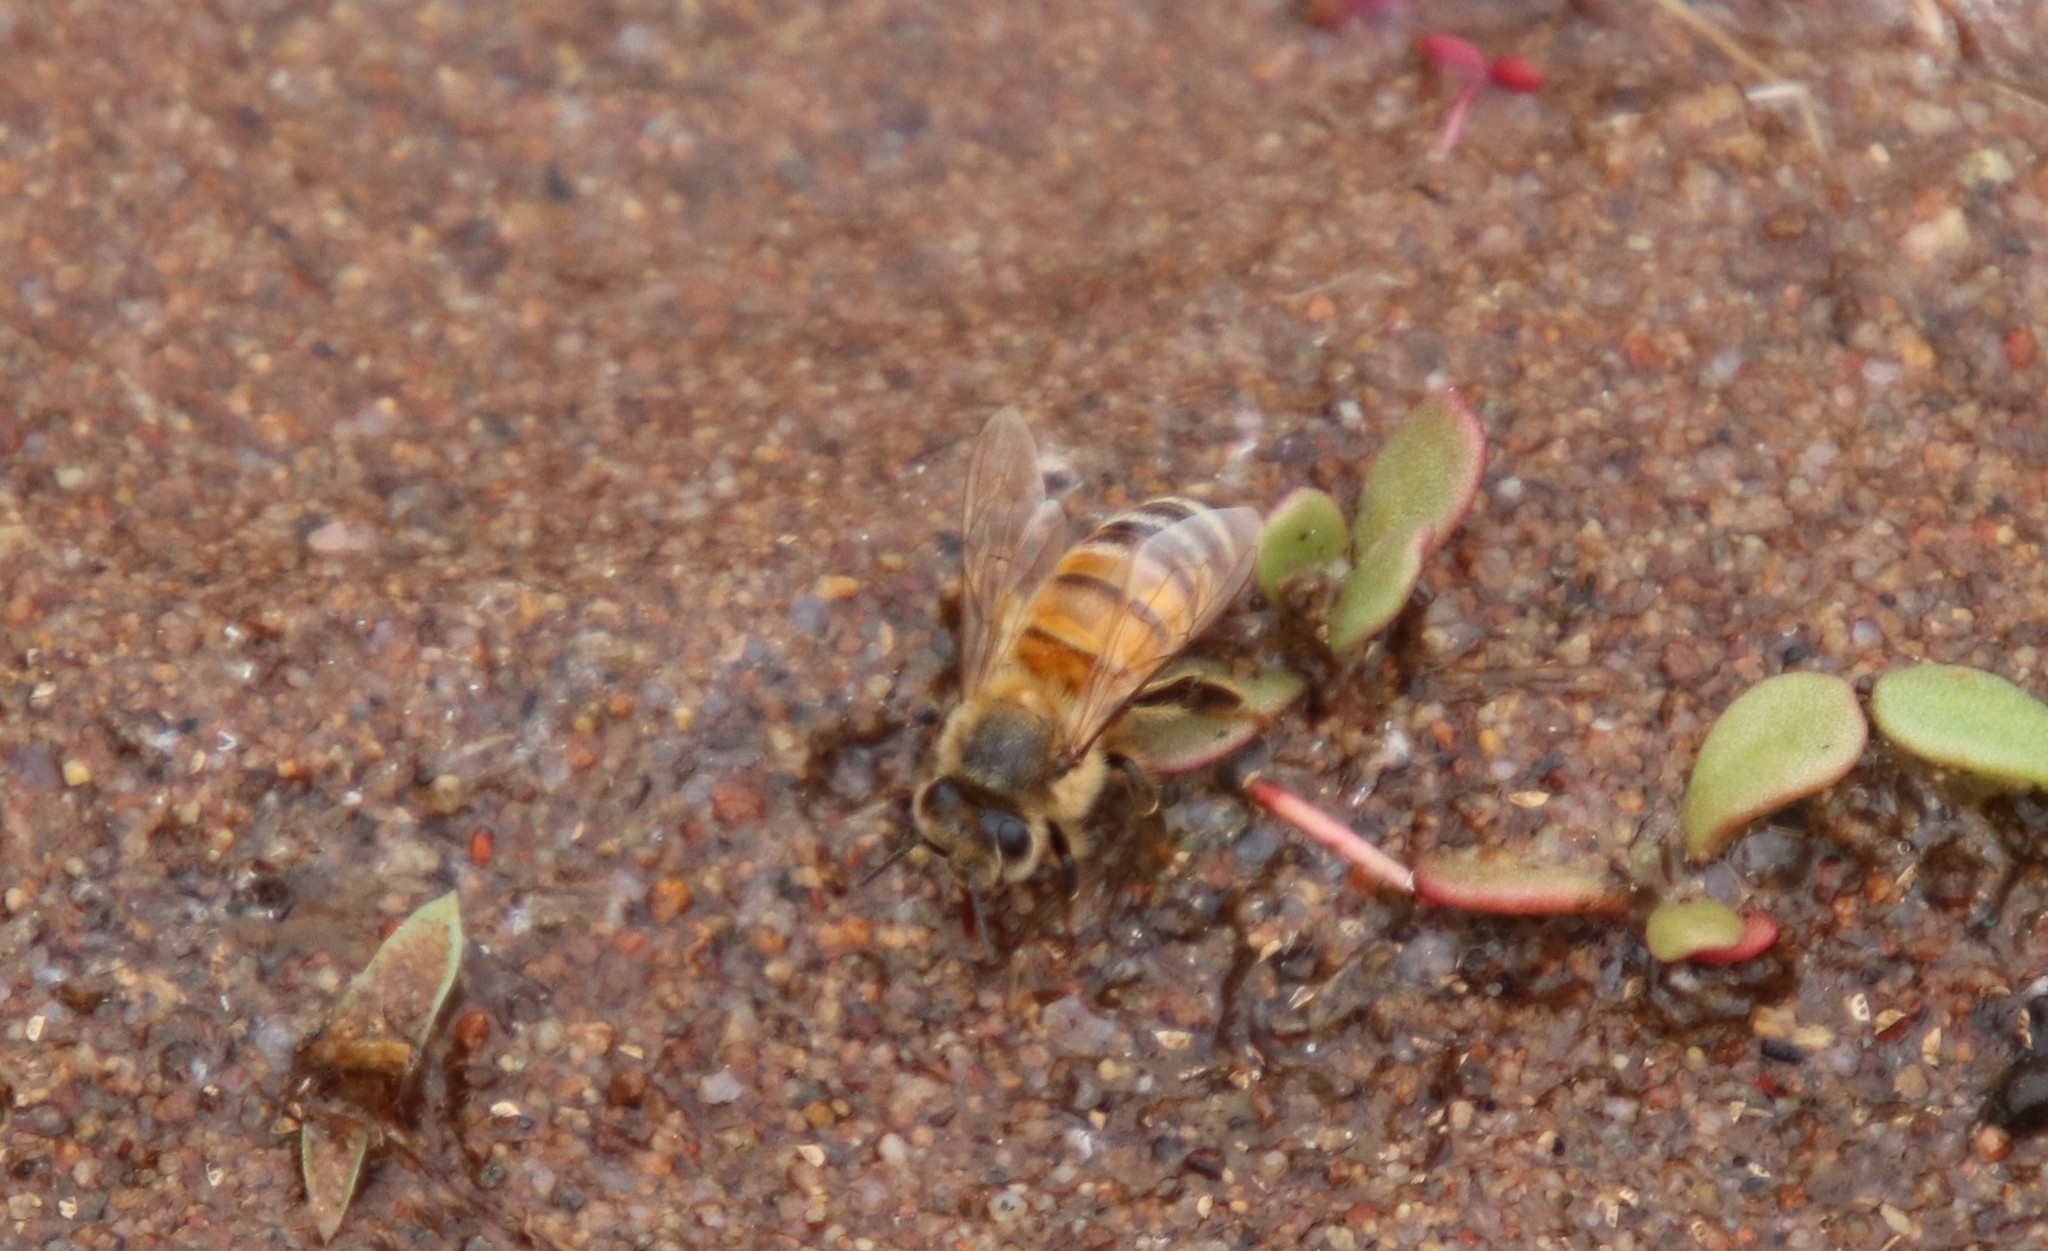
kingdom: Animalia
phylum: Arthropoda
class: Insecta
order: Hymenoptera
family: Apidae
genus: Apis
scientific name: Apis mellifera
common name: Honey bee
